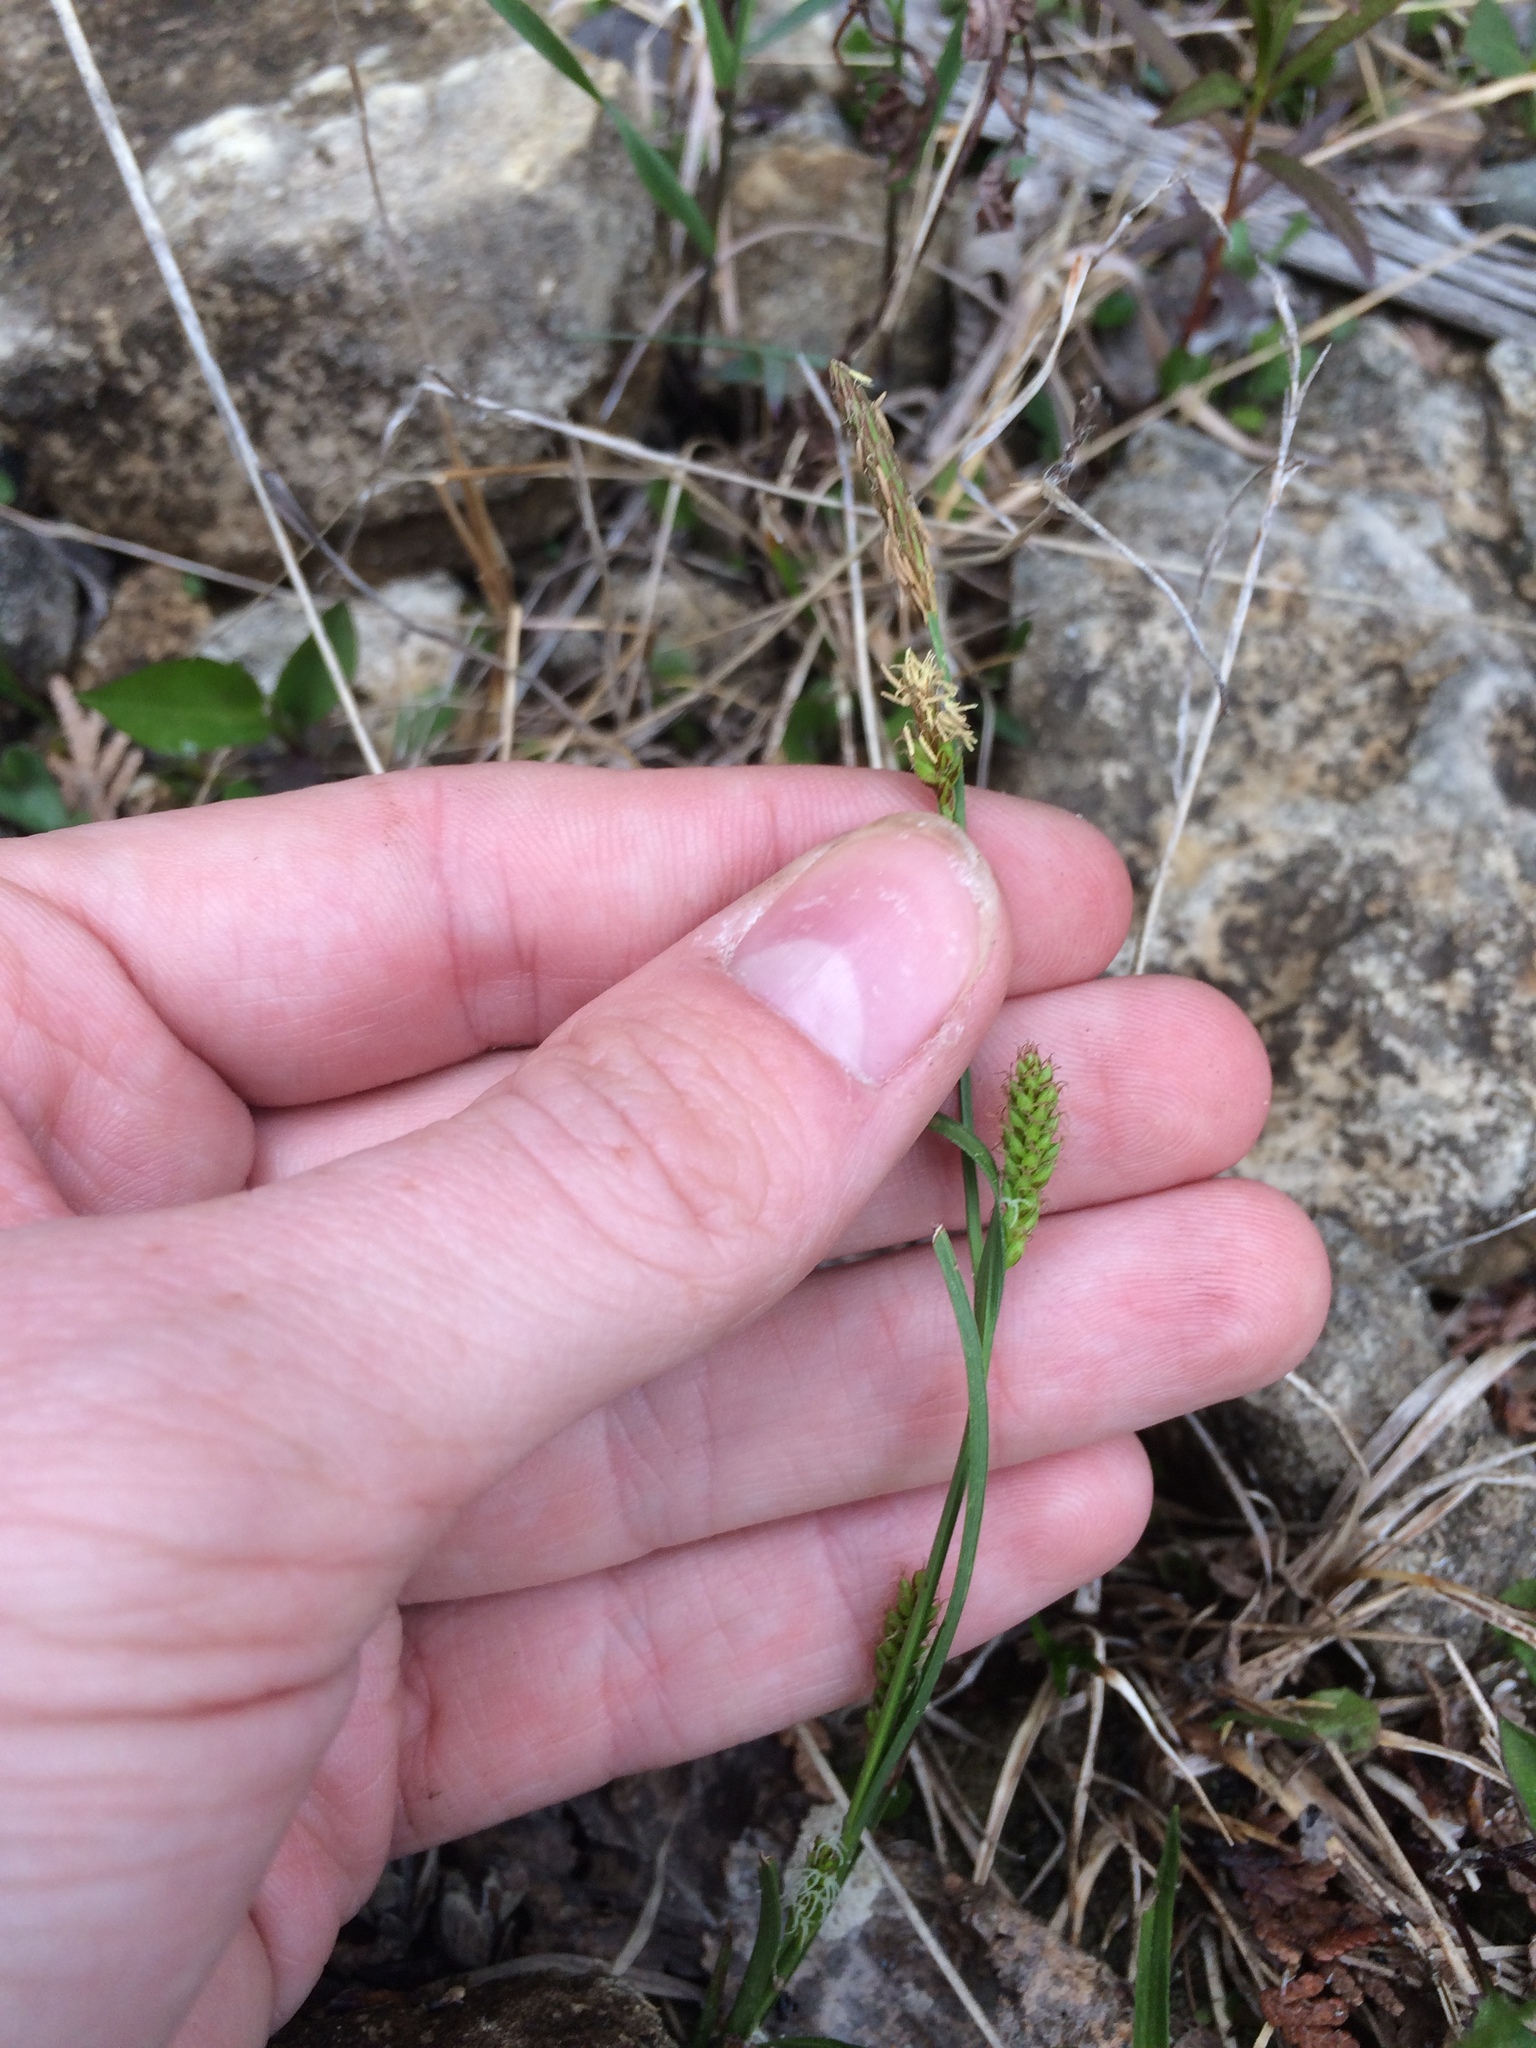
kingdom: Plantae
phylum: Tracheophyta
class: Liliopsida
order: Poales
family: Cyperaceae
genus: Carex
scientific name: Carex crawei
